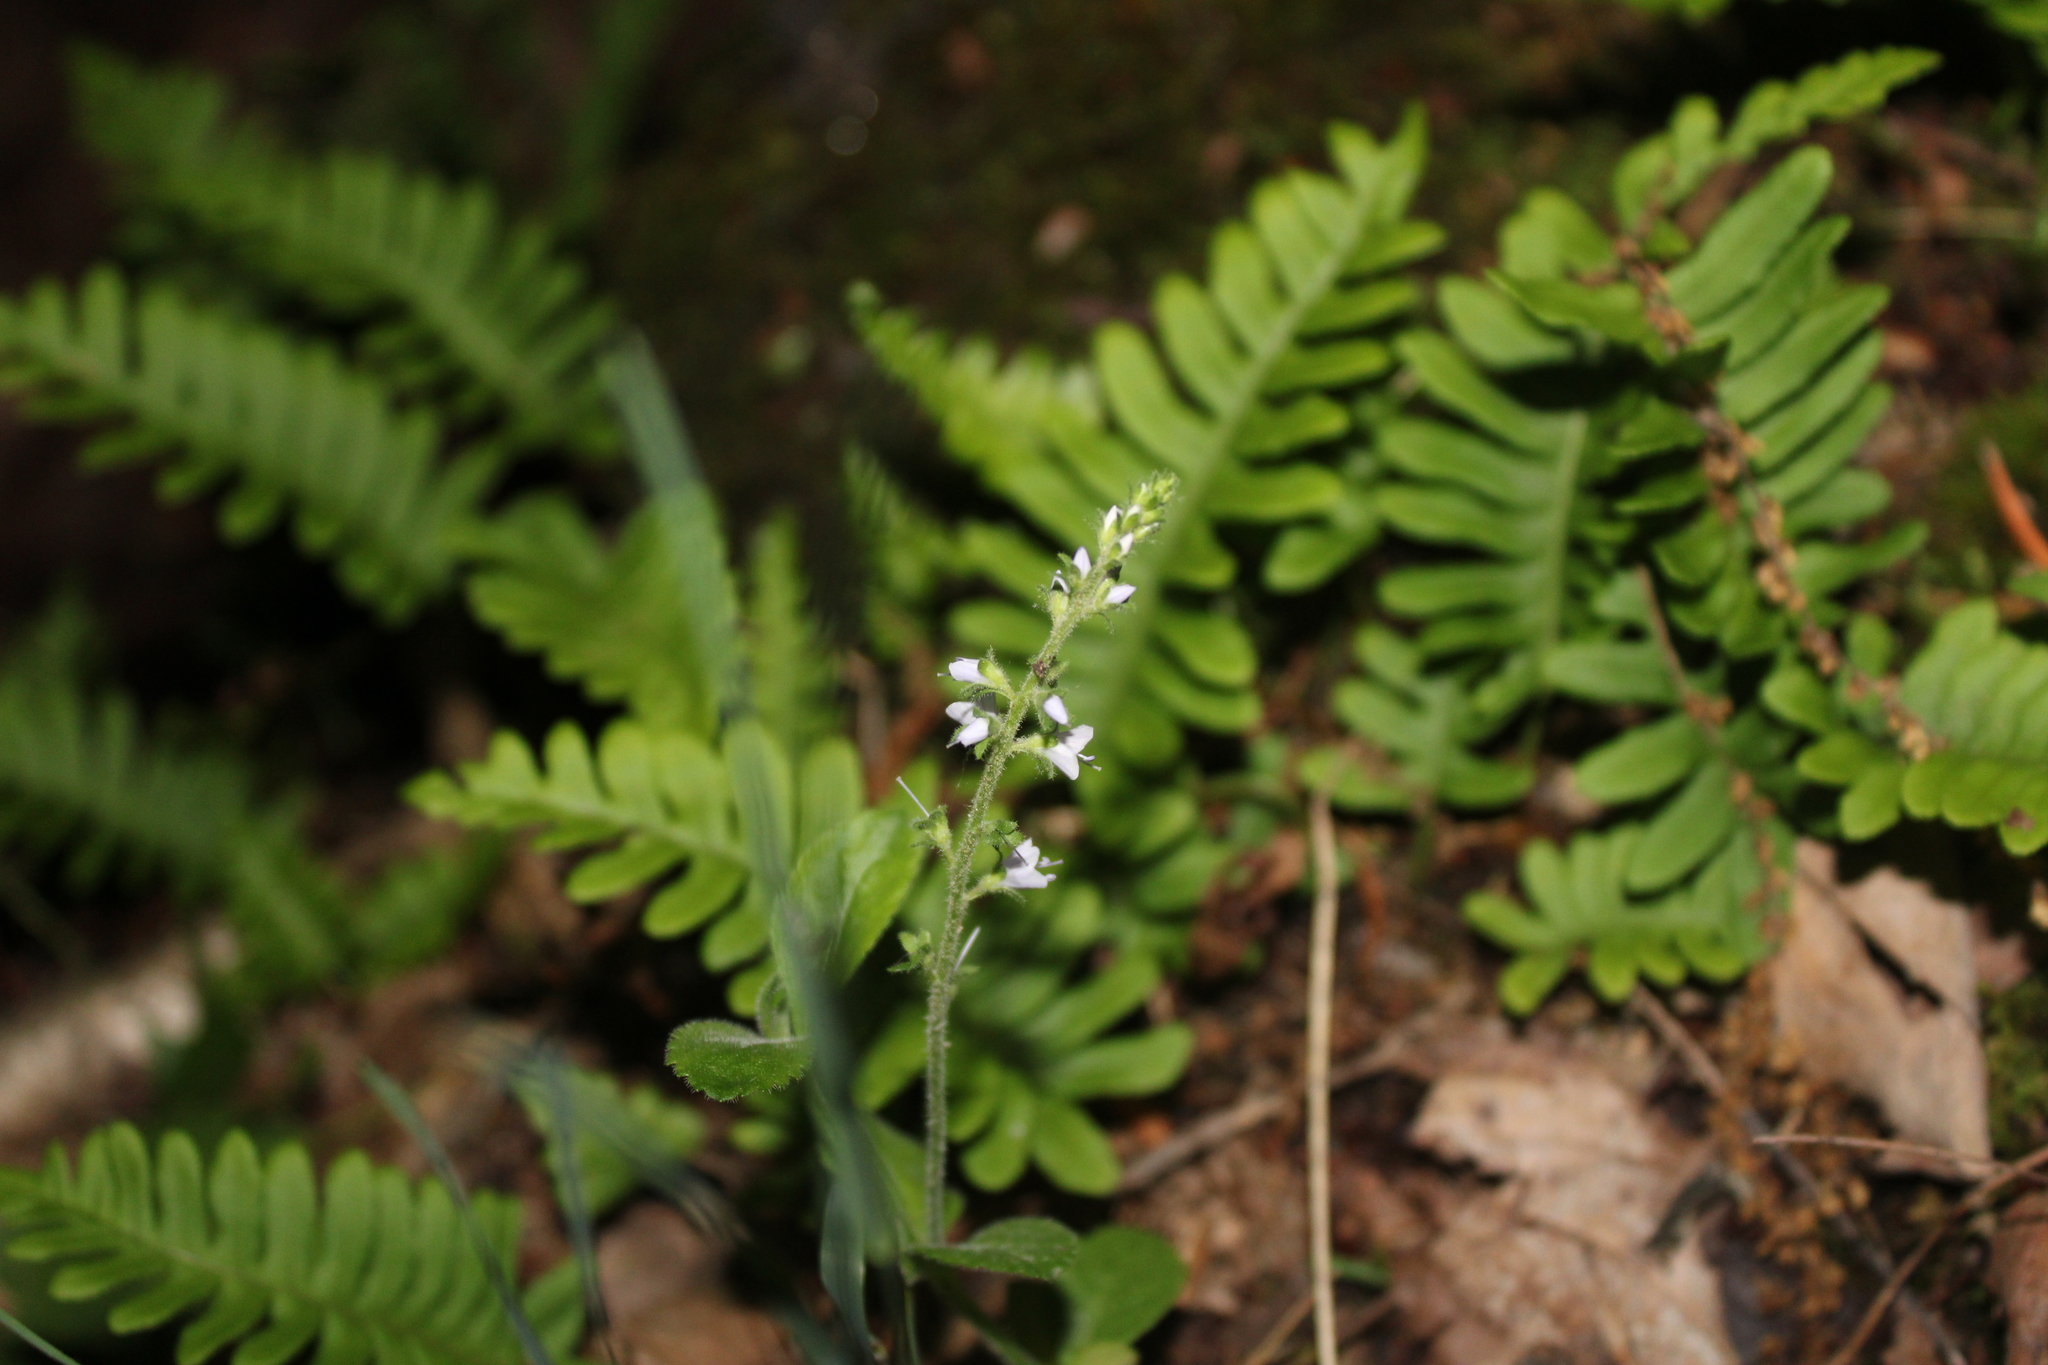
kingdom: Plantae
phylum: Tracheophyta
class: Magnoliopsida
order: Lamiales
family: Plantaginaceae
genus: Veronica
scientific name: Veronica officinalis
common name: Common speedwell
